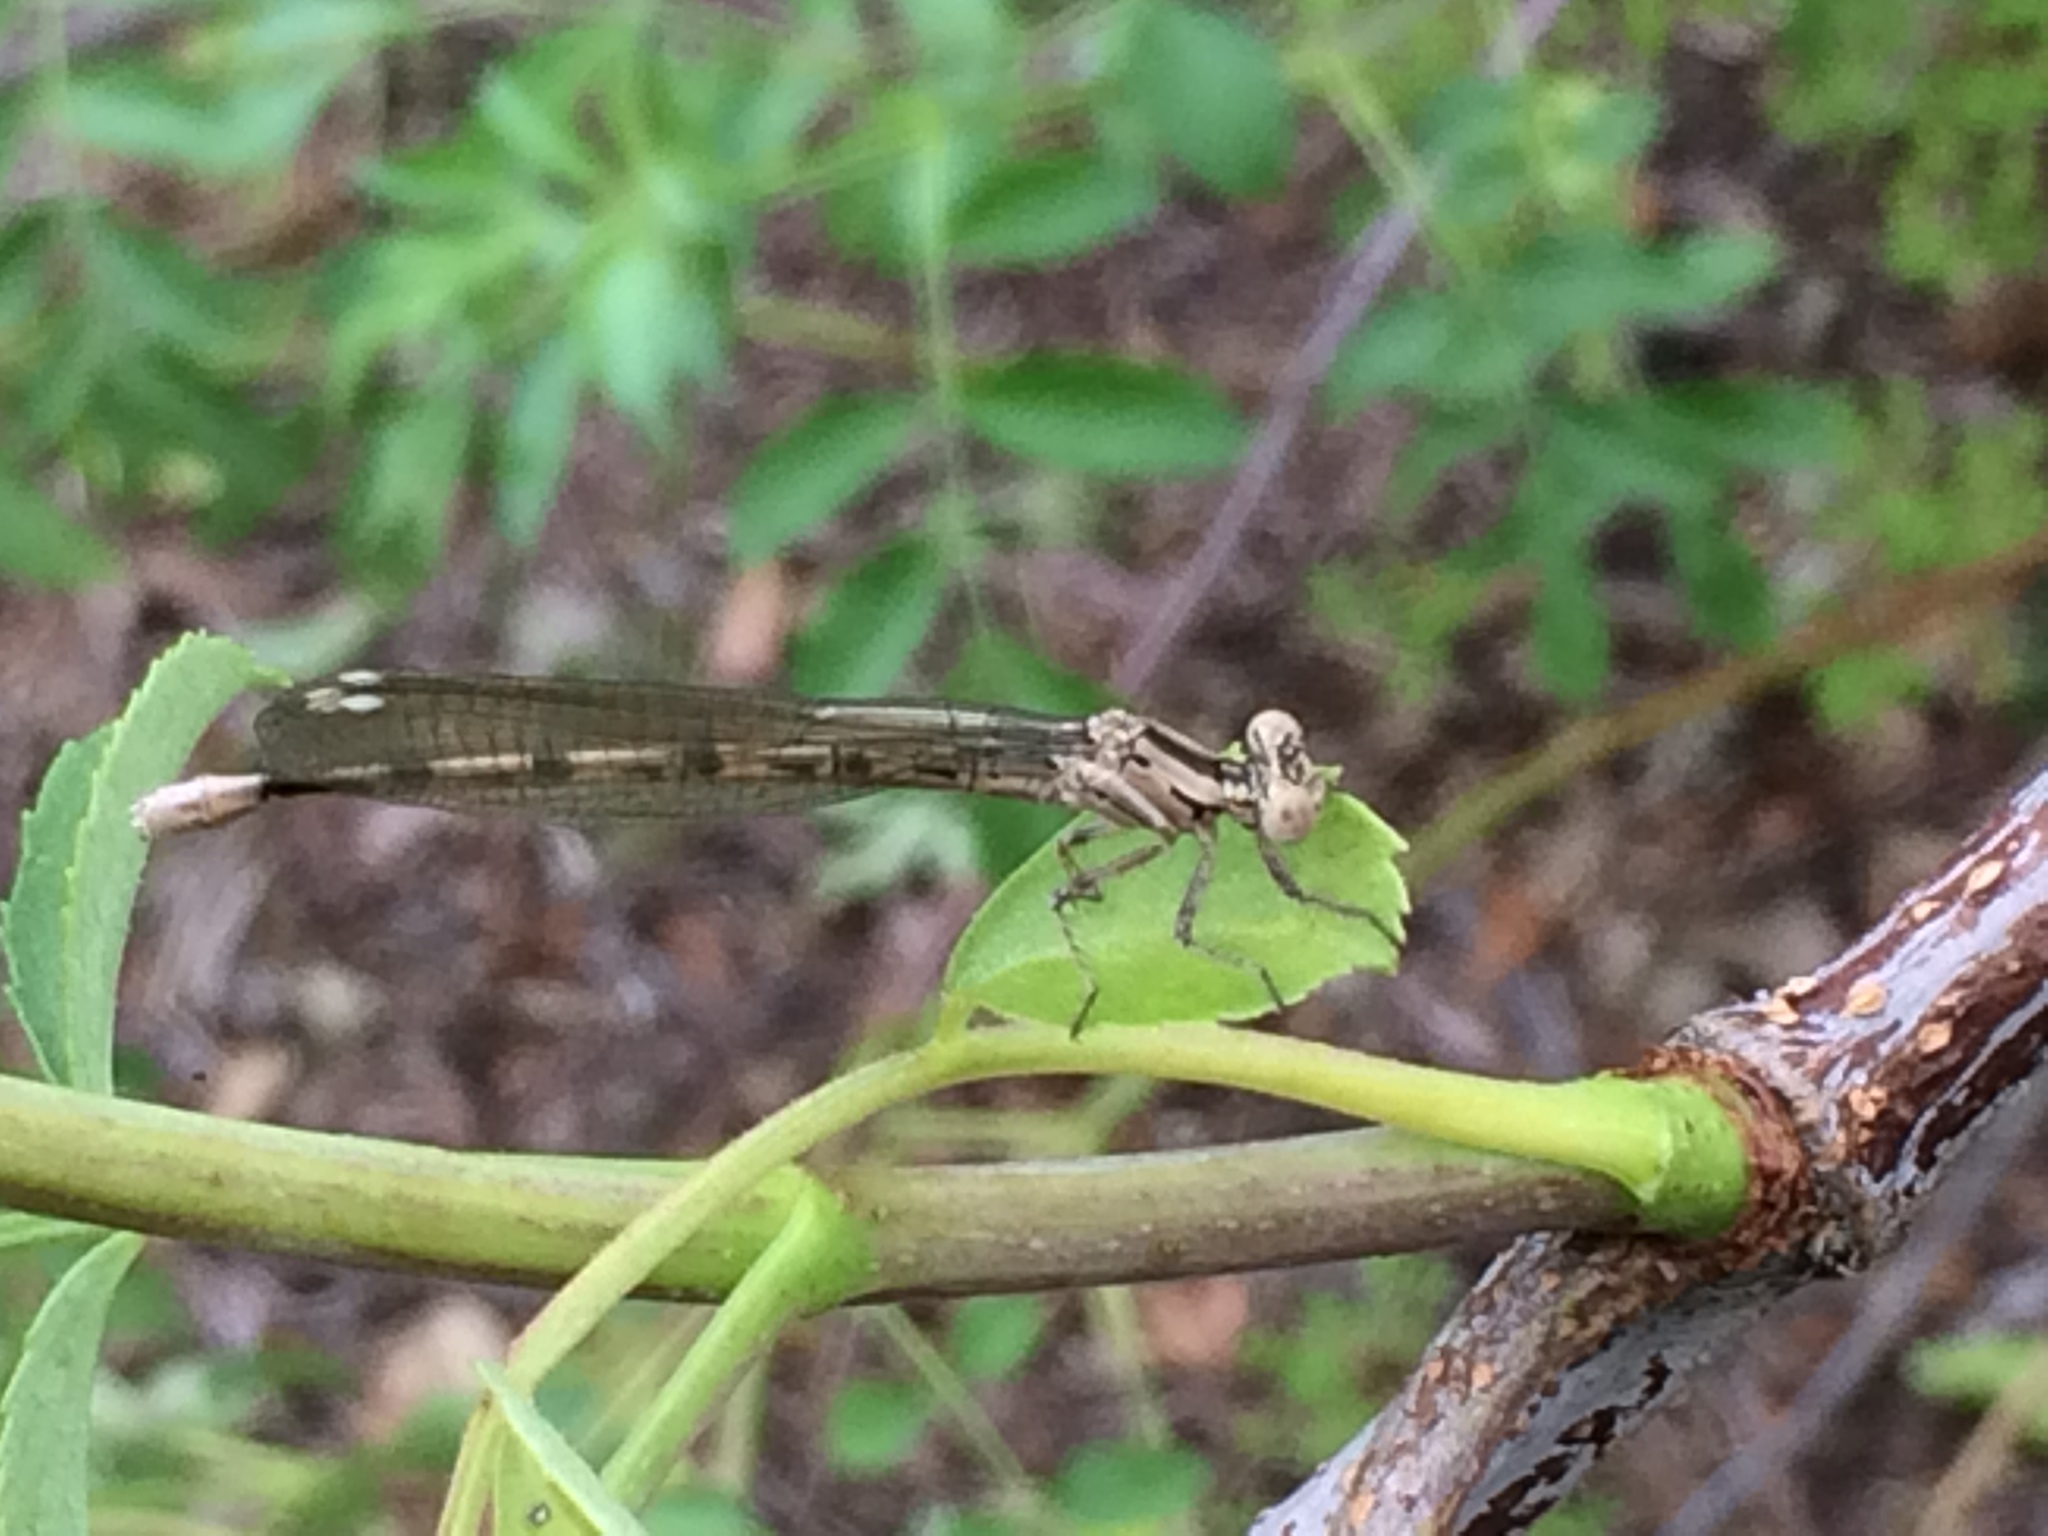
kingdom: Animalia
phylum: Arthropoda
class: Insecta
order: Odonata
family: Coenagrionidae
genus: Argia
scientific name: Argia vivida
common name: Vivid dancer
